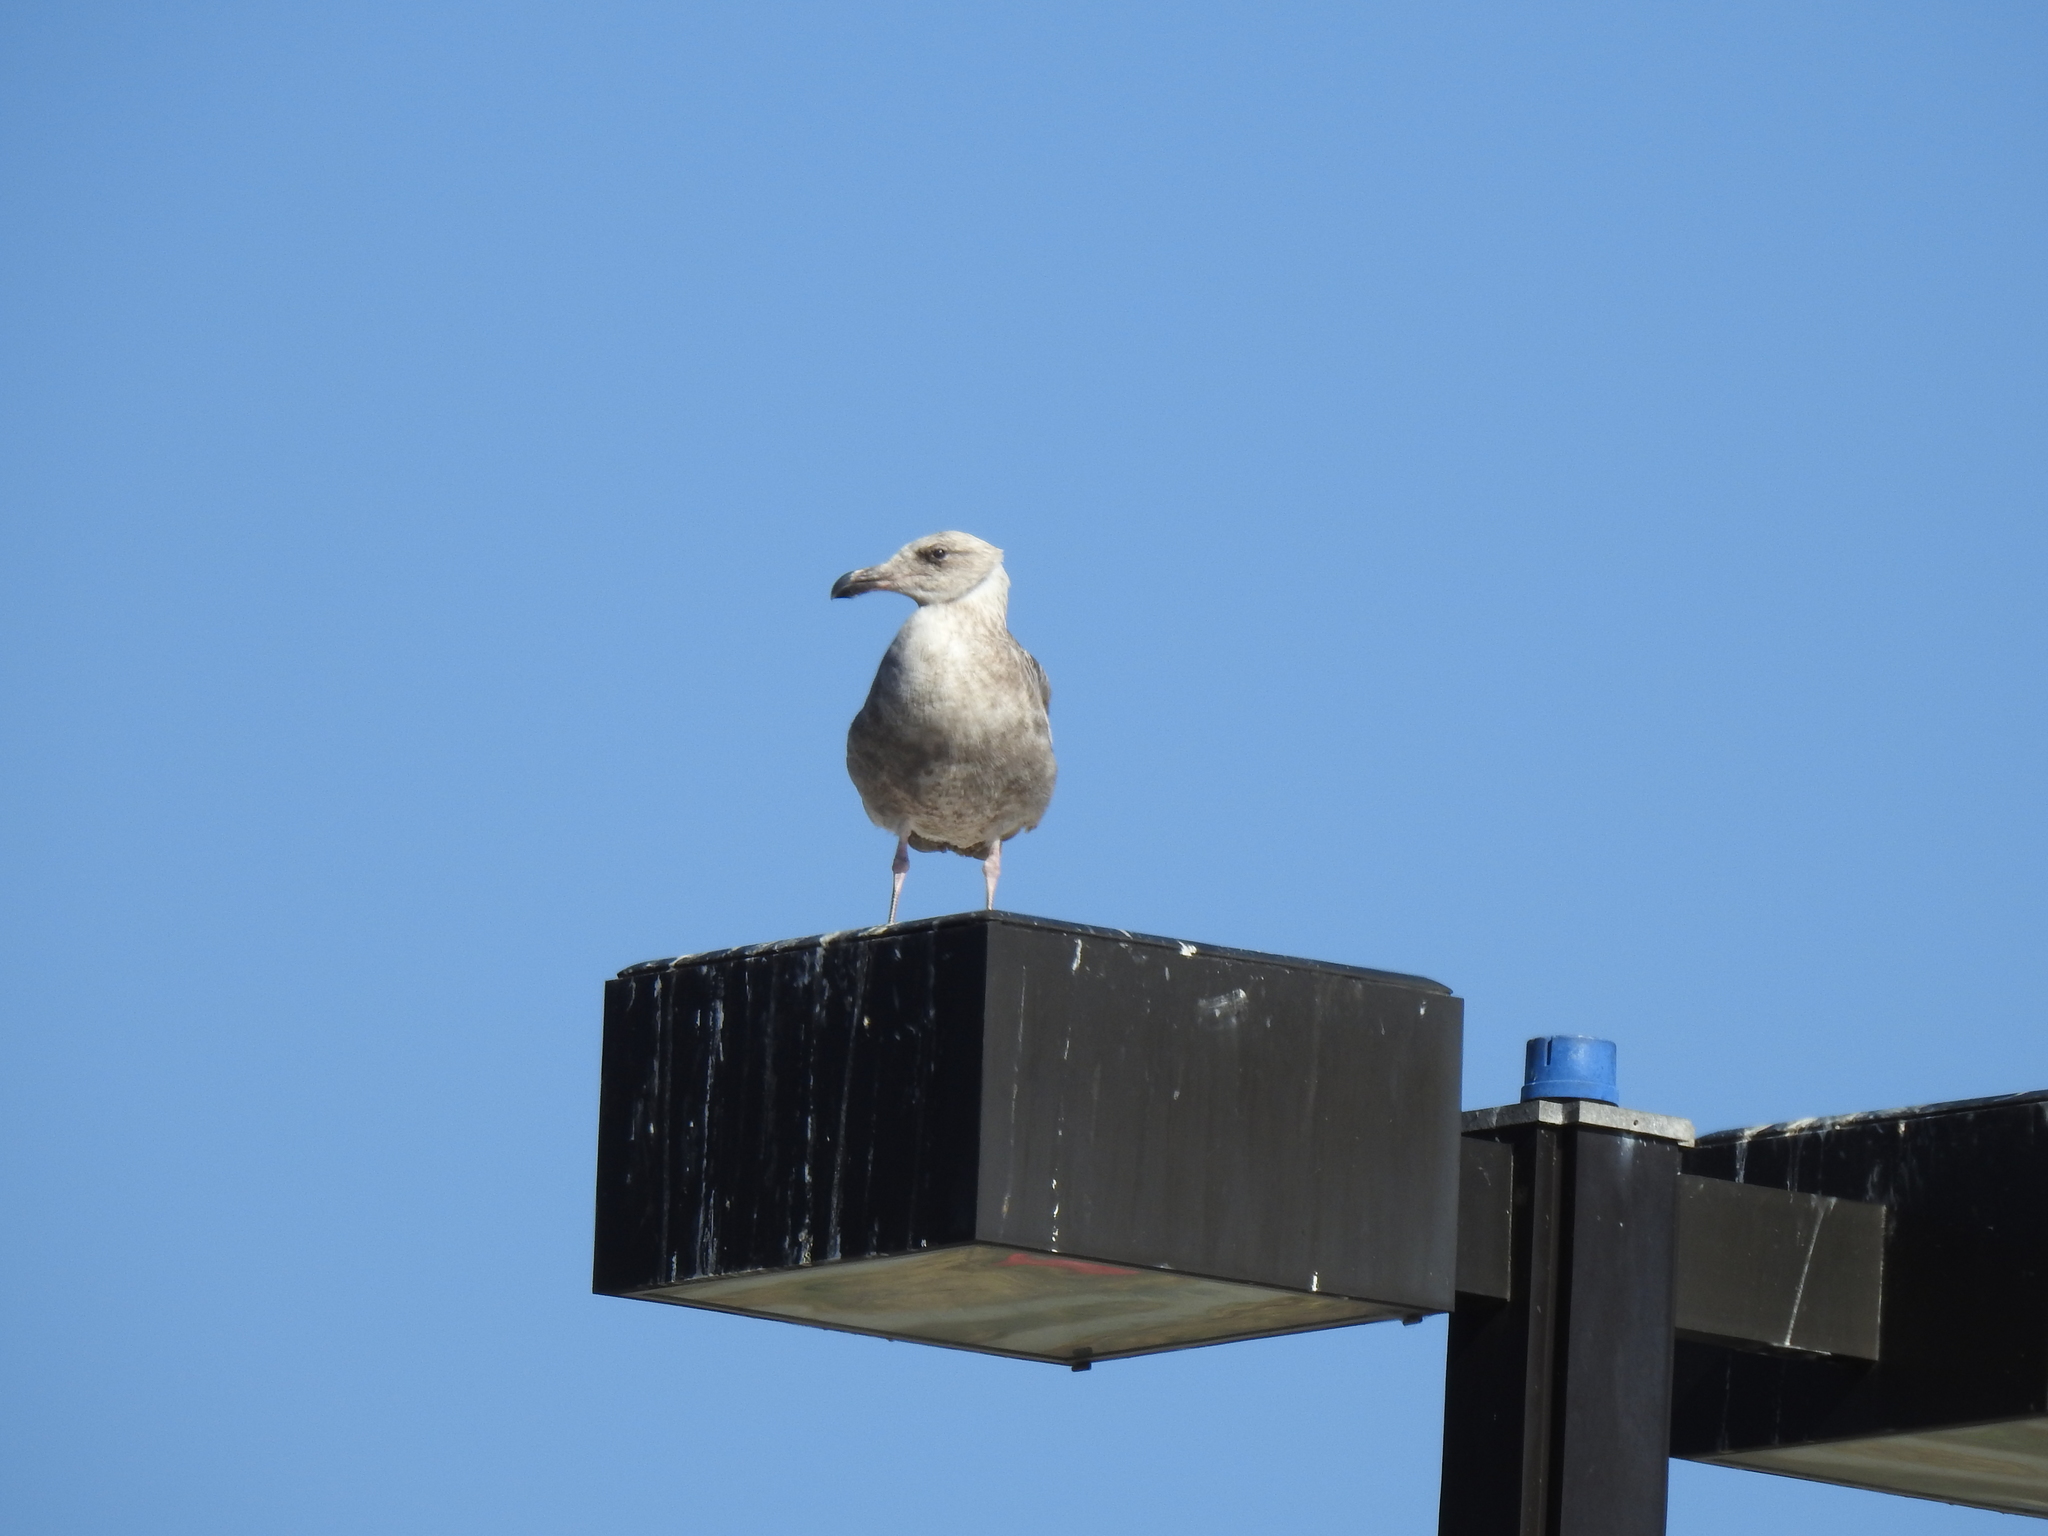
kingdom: Animalia
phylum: Chordata
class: Aves
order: Charadriiformes
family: Laridae
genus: Larus
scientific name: Larus occidentalis
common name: Western gull
